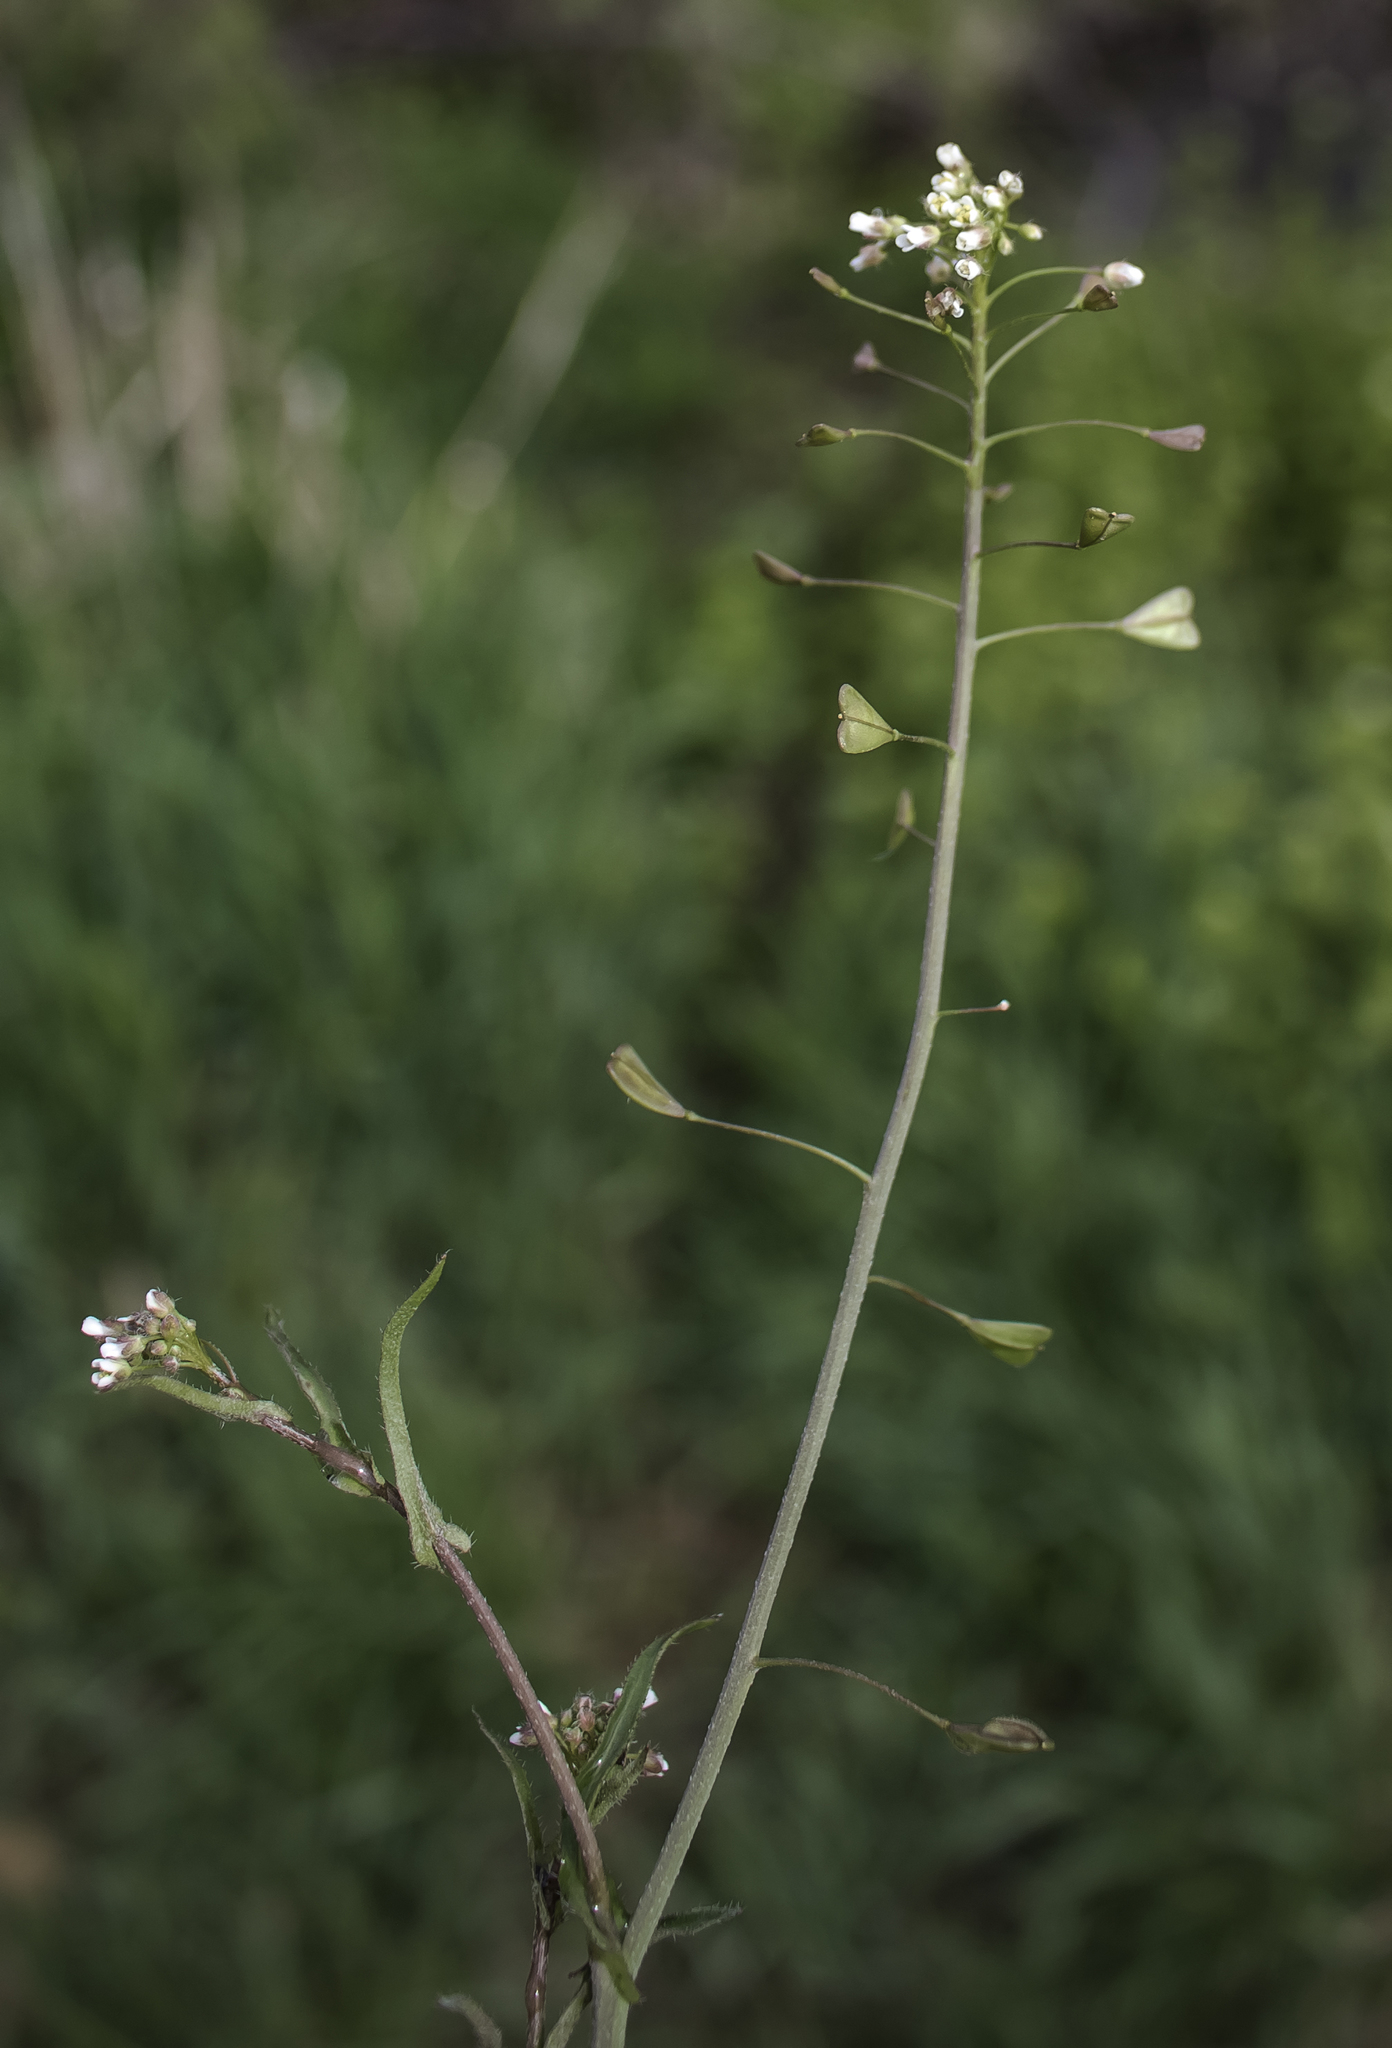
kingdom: Plantae
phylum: Tracheophyta
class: Magnoliopsida
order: Brassicales
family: Brassicaceae
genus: Capsella
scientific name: Capsella bursa-pastoris
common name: Shepherd's purse
